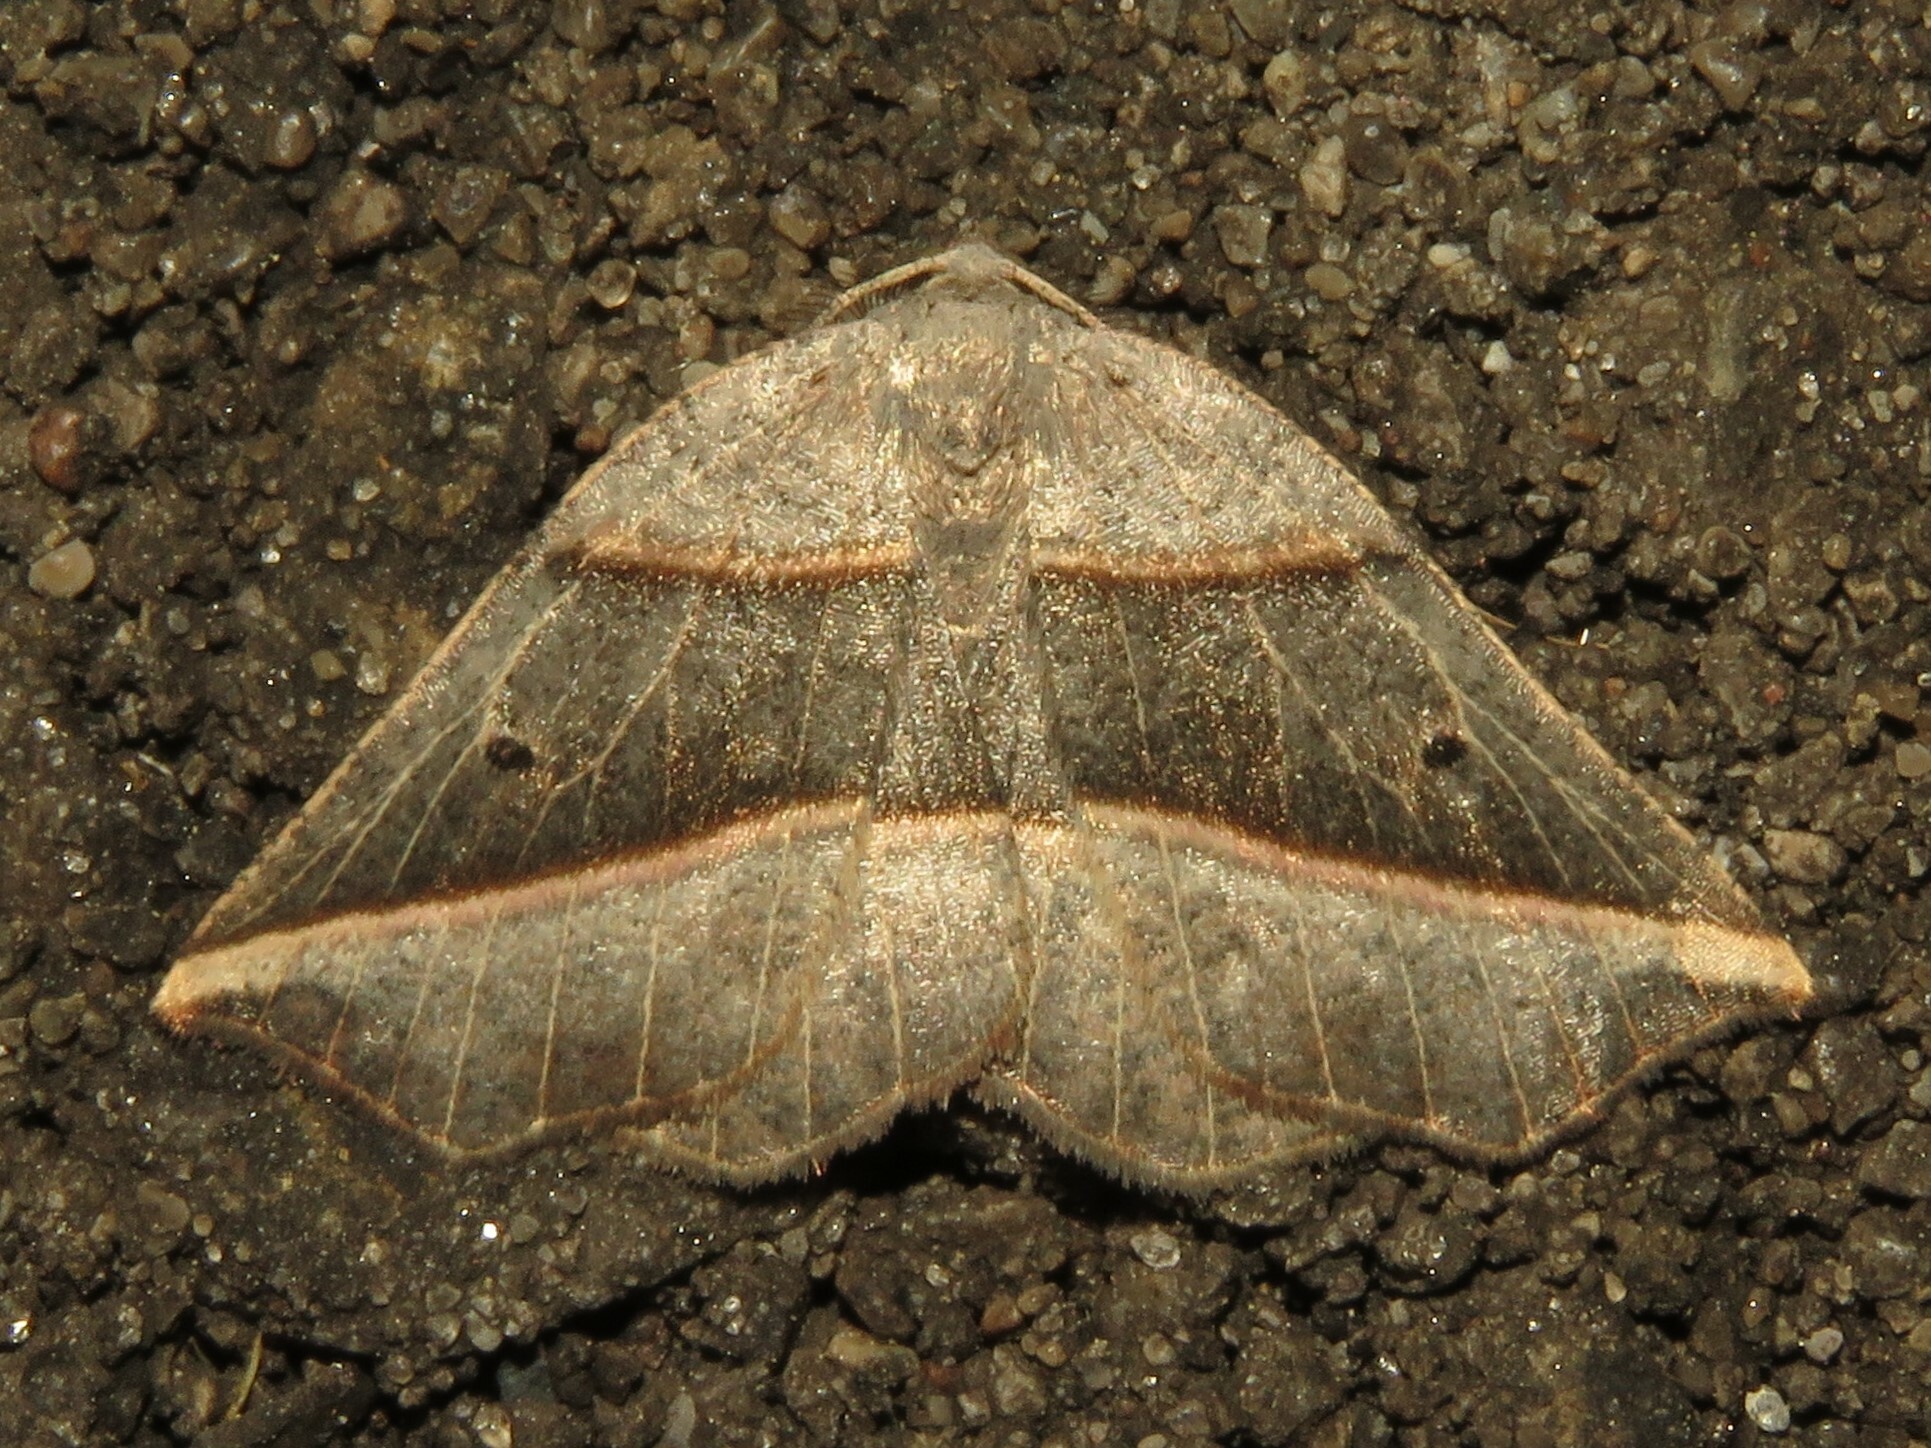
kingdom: Animalia
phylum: Arthropoda
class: Insecta
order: Lepidoptera
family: Geometridae
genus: Metanema
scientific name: Metanema determinata
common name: Dark metanema
